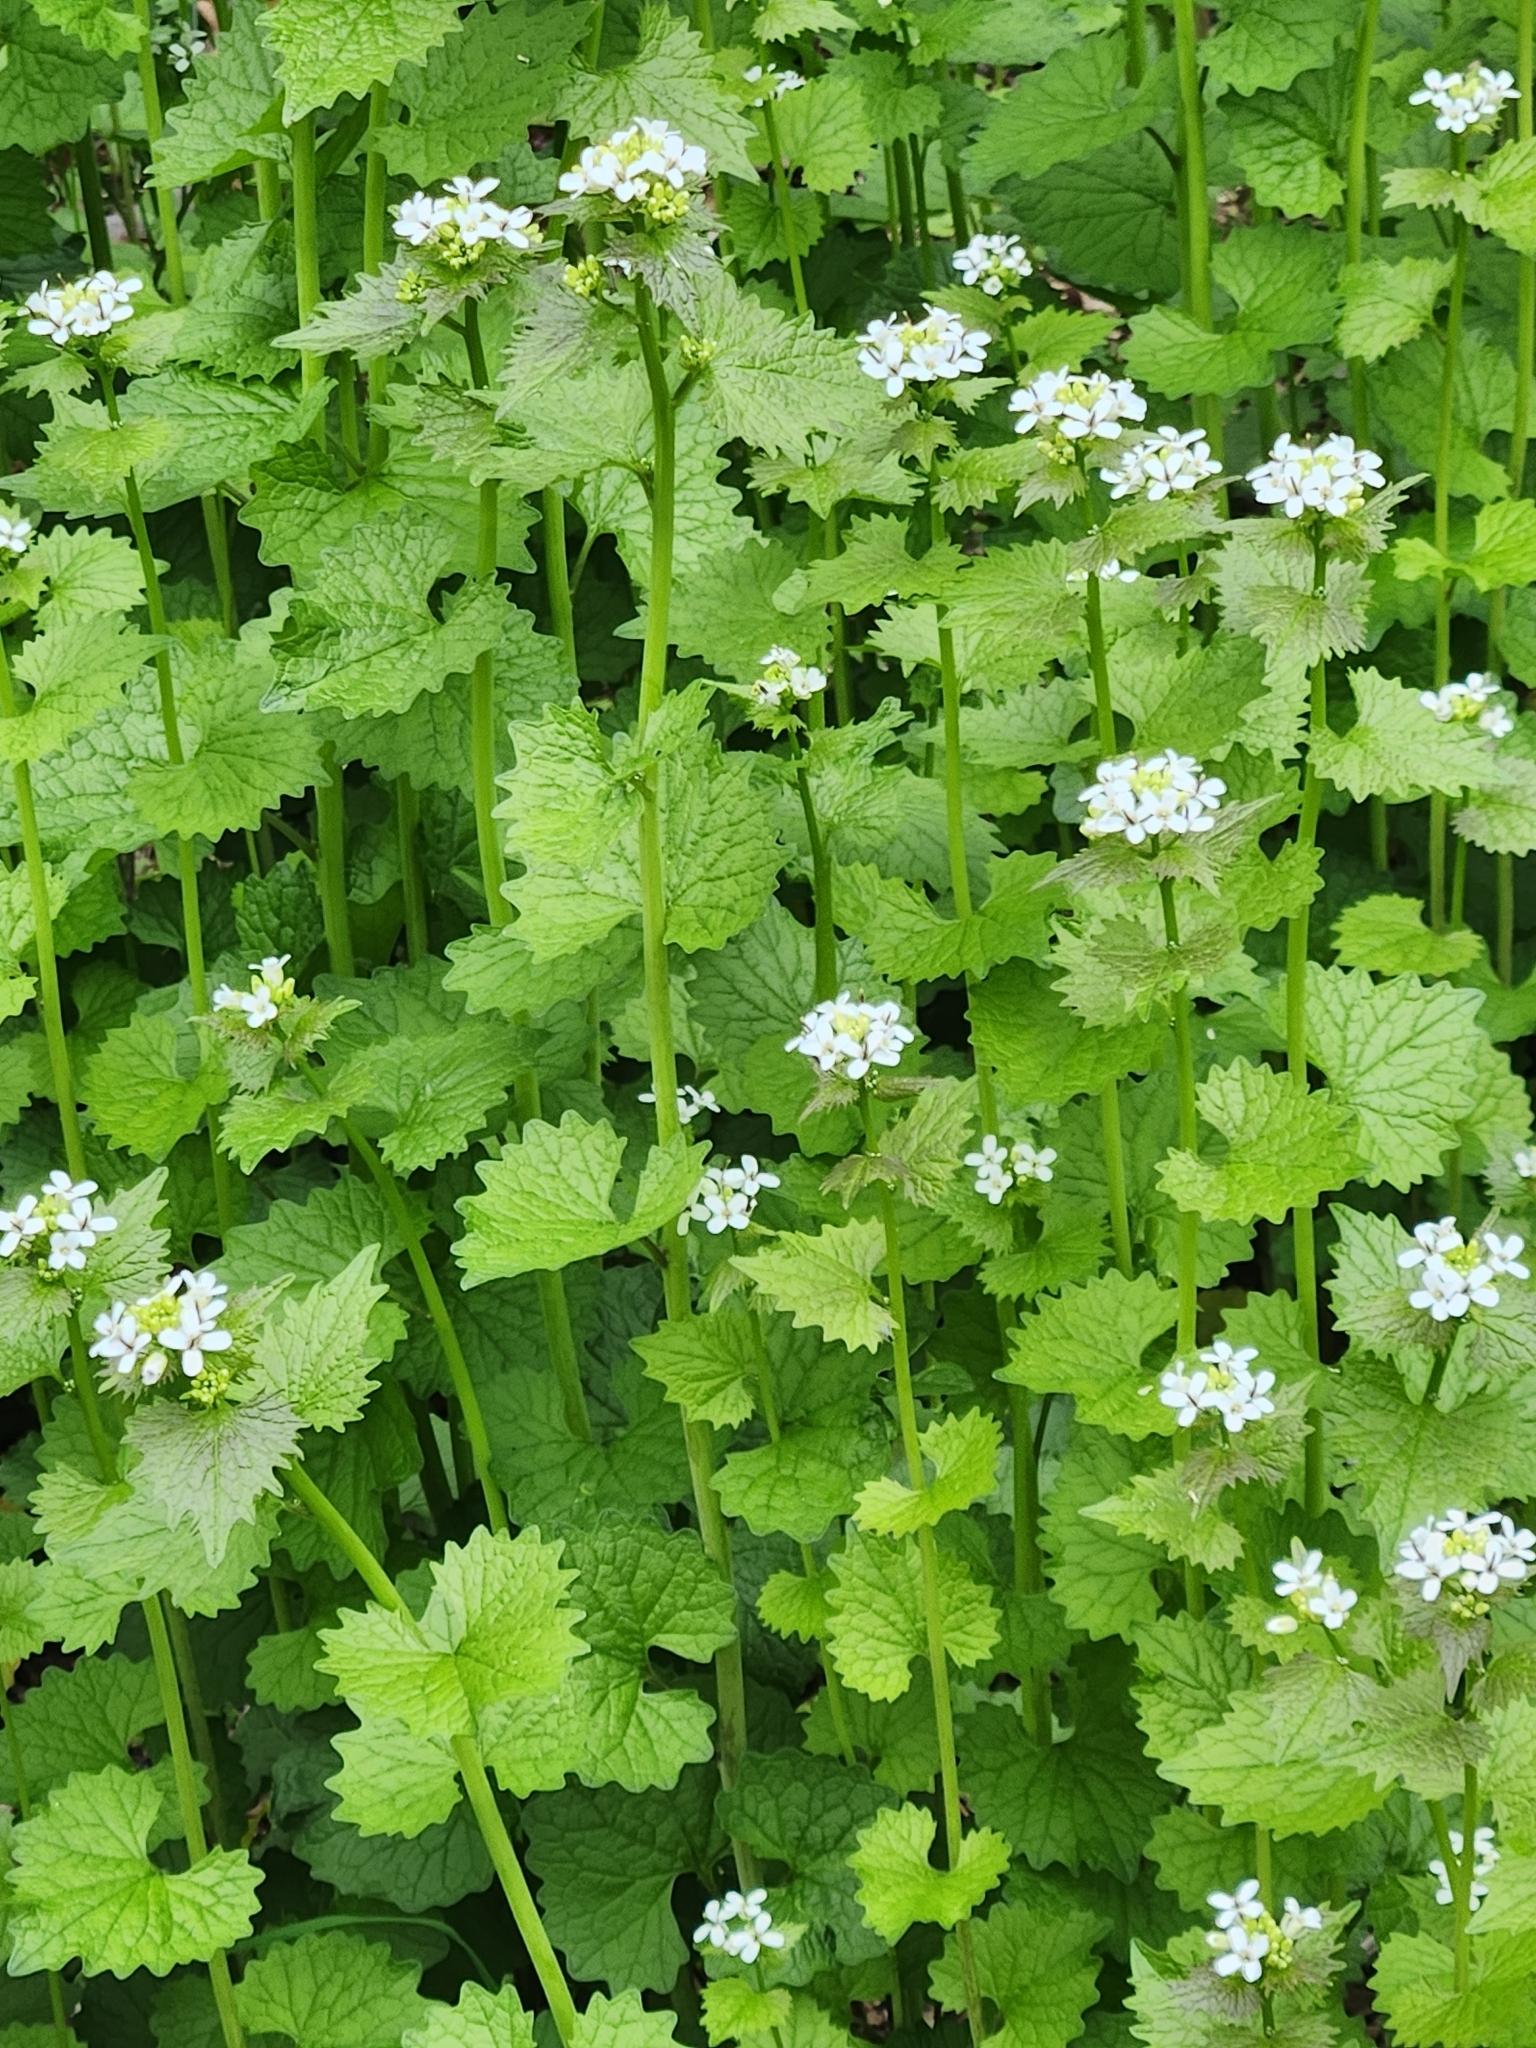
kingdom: Plantae
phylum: Tracheophyta
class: Magnoliopsida
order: Brassicales
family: Brassicaceae
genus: Alliaria
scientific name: Alliaria petiolata
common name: Garlic mustard
